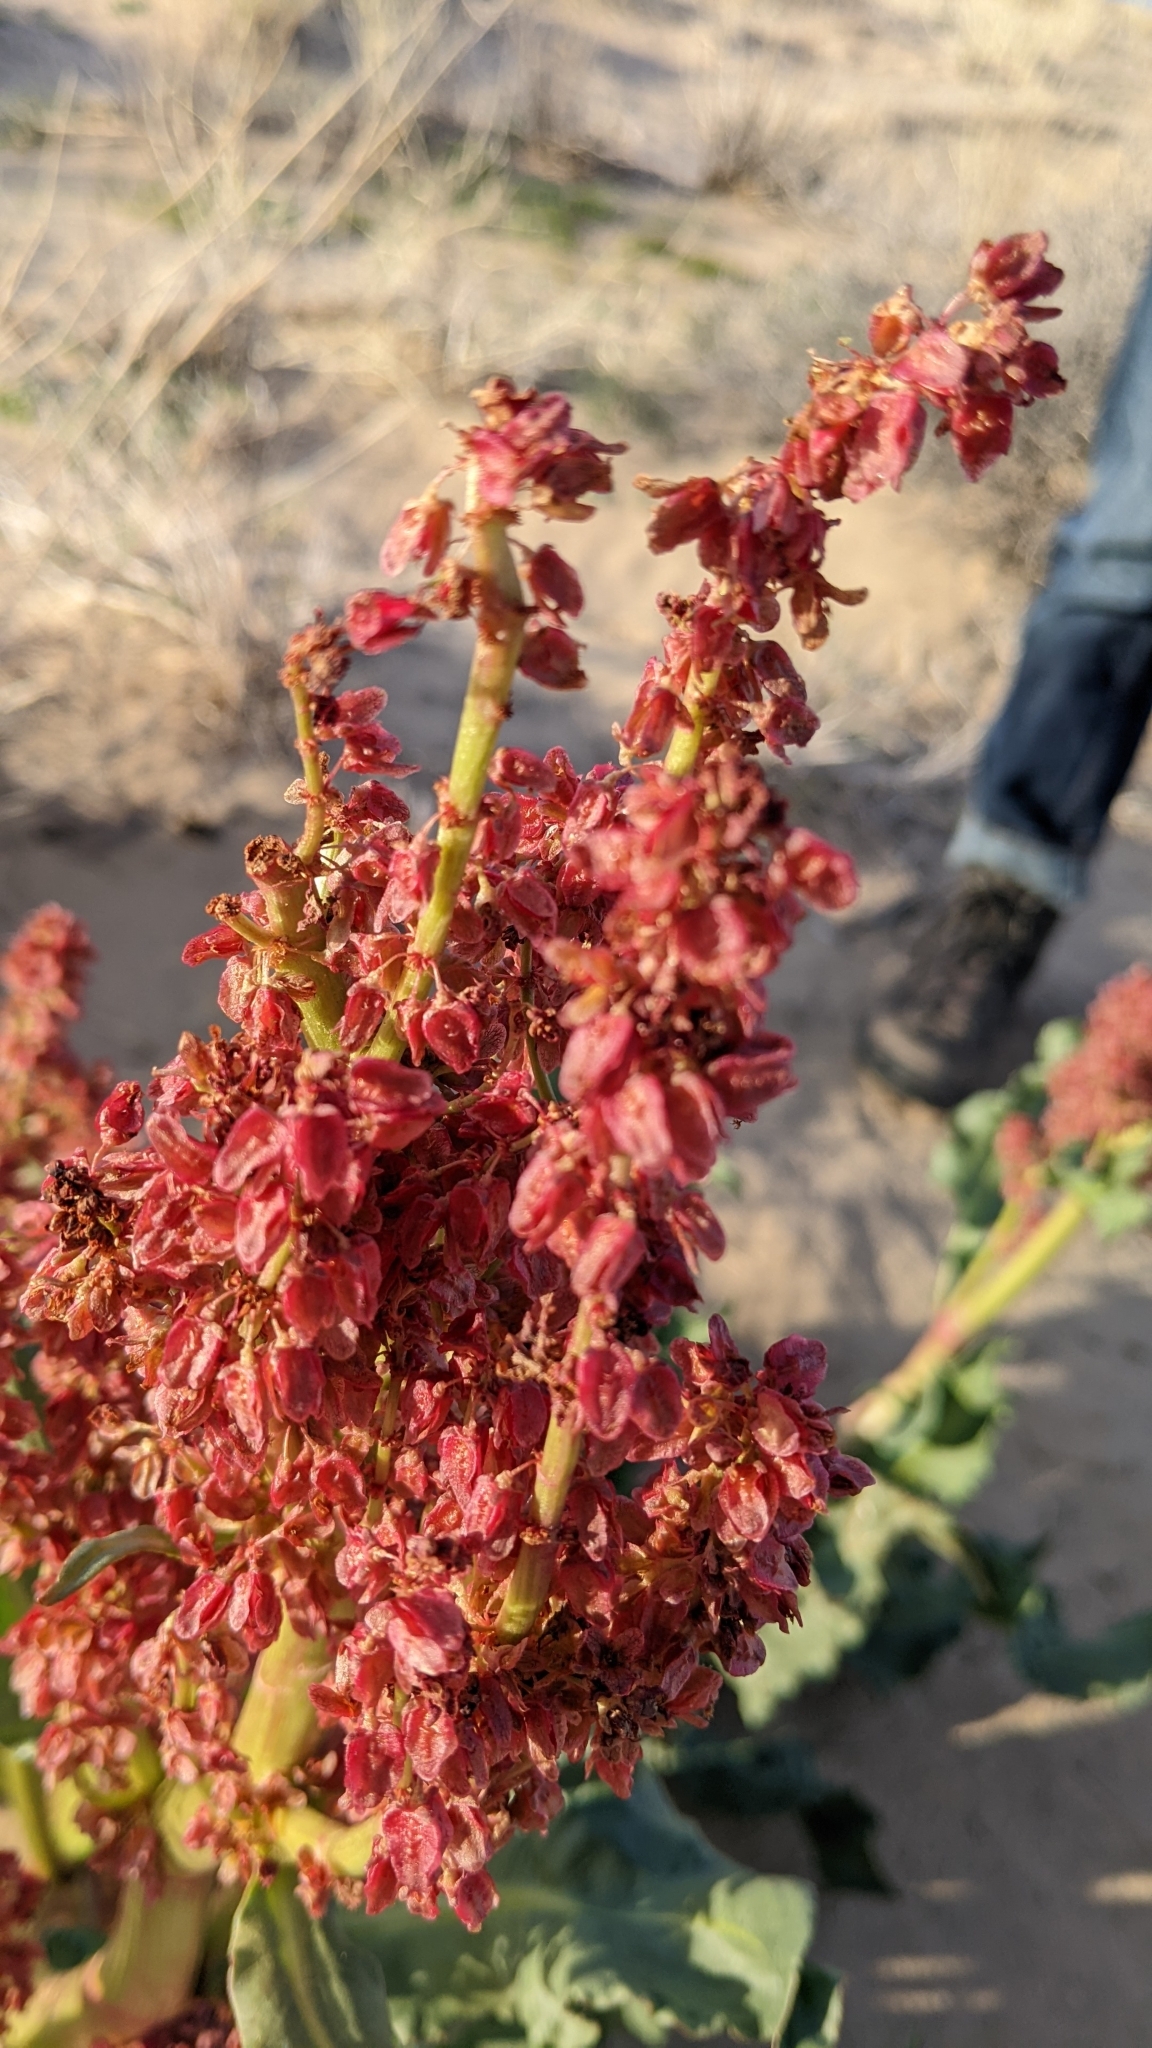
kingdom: Plantae
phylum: Tracheophyta
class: Magnoliopsida
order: Caryophyllales
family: Polygonaceae
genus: Rumex
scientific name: Rumex hymenosepalus
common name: Ganagra
